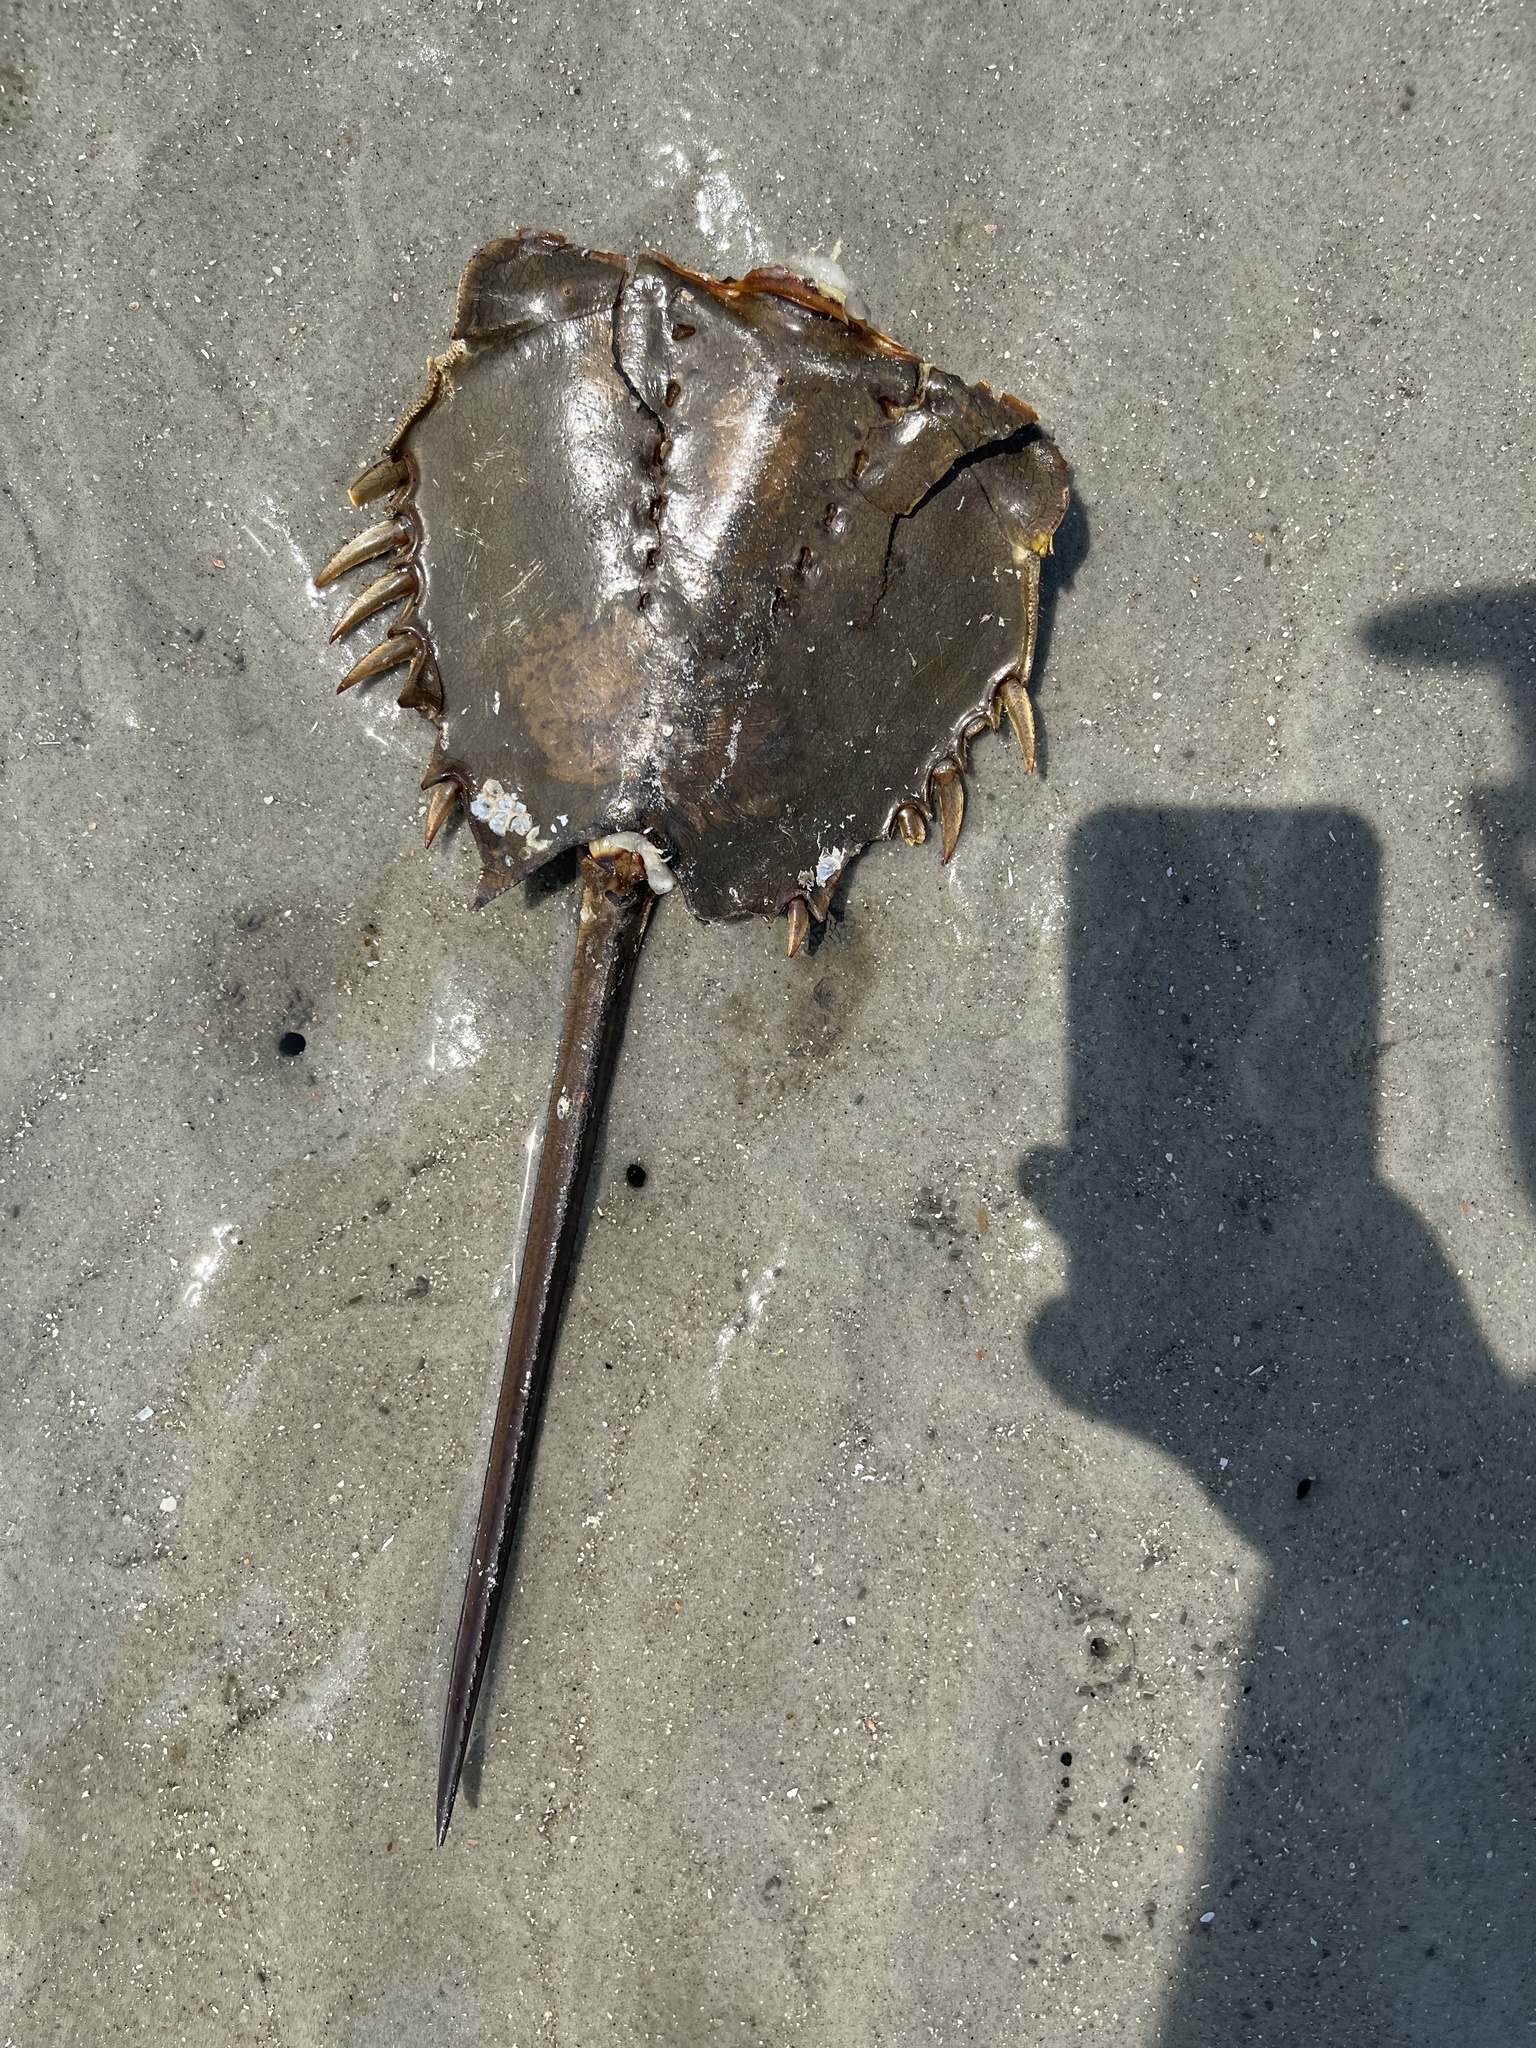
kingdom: Animalia
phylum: Arthropoda
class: Merostomata
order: Xiphosurida
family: Limulidae
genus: Limulus
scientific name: Limulus polyphemus
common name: Horseshoe crab
